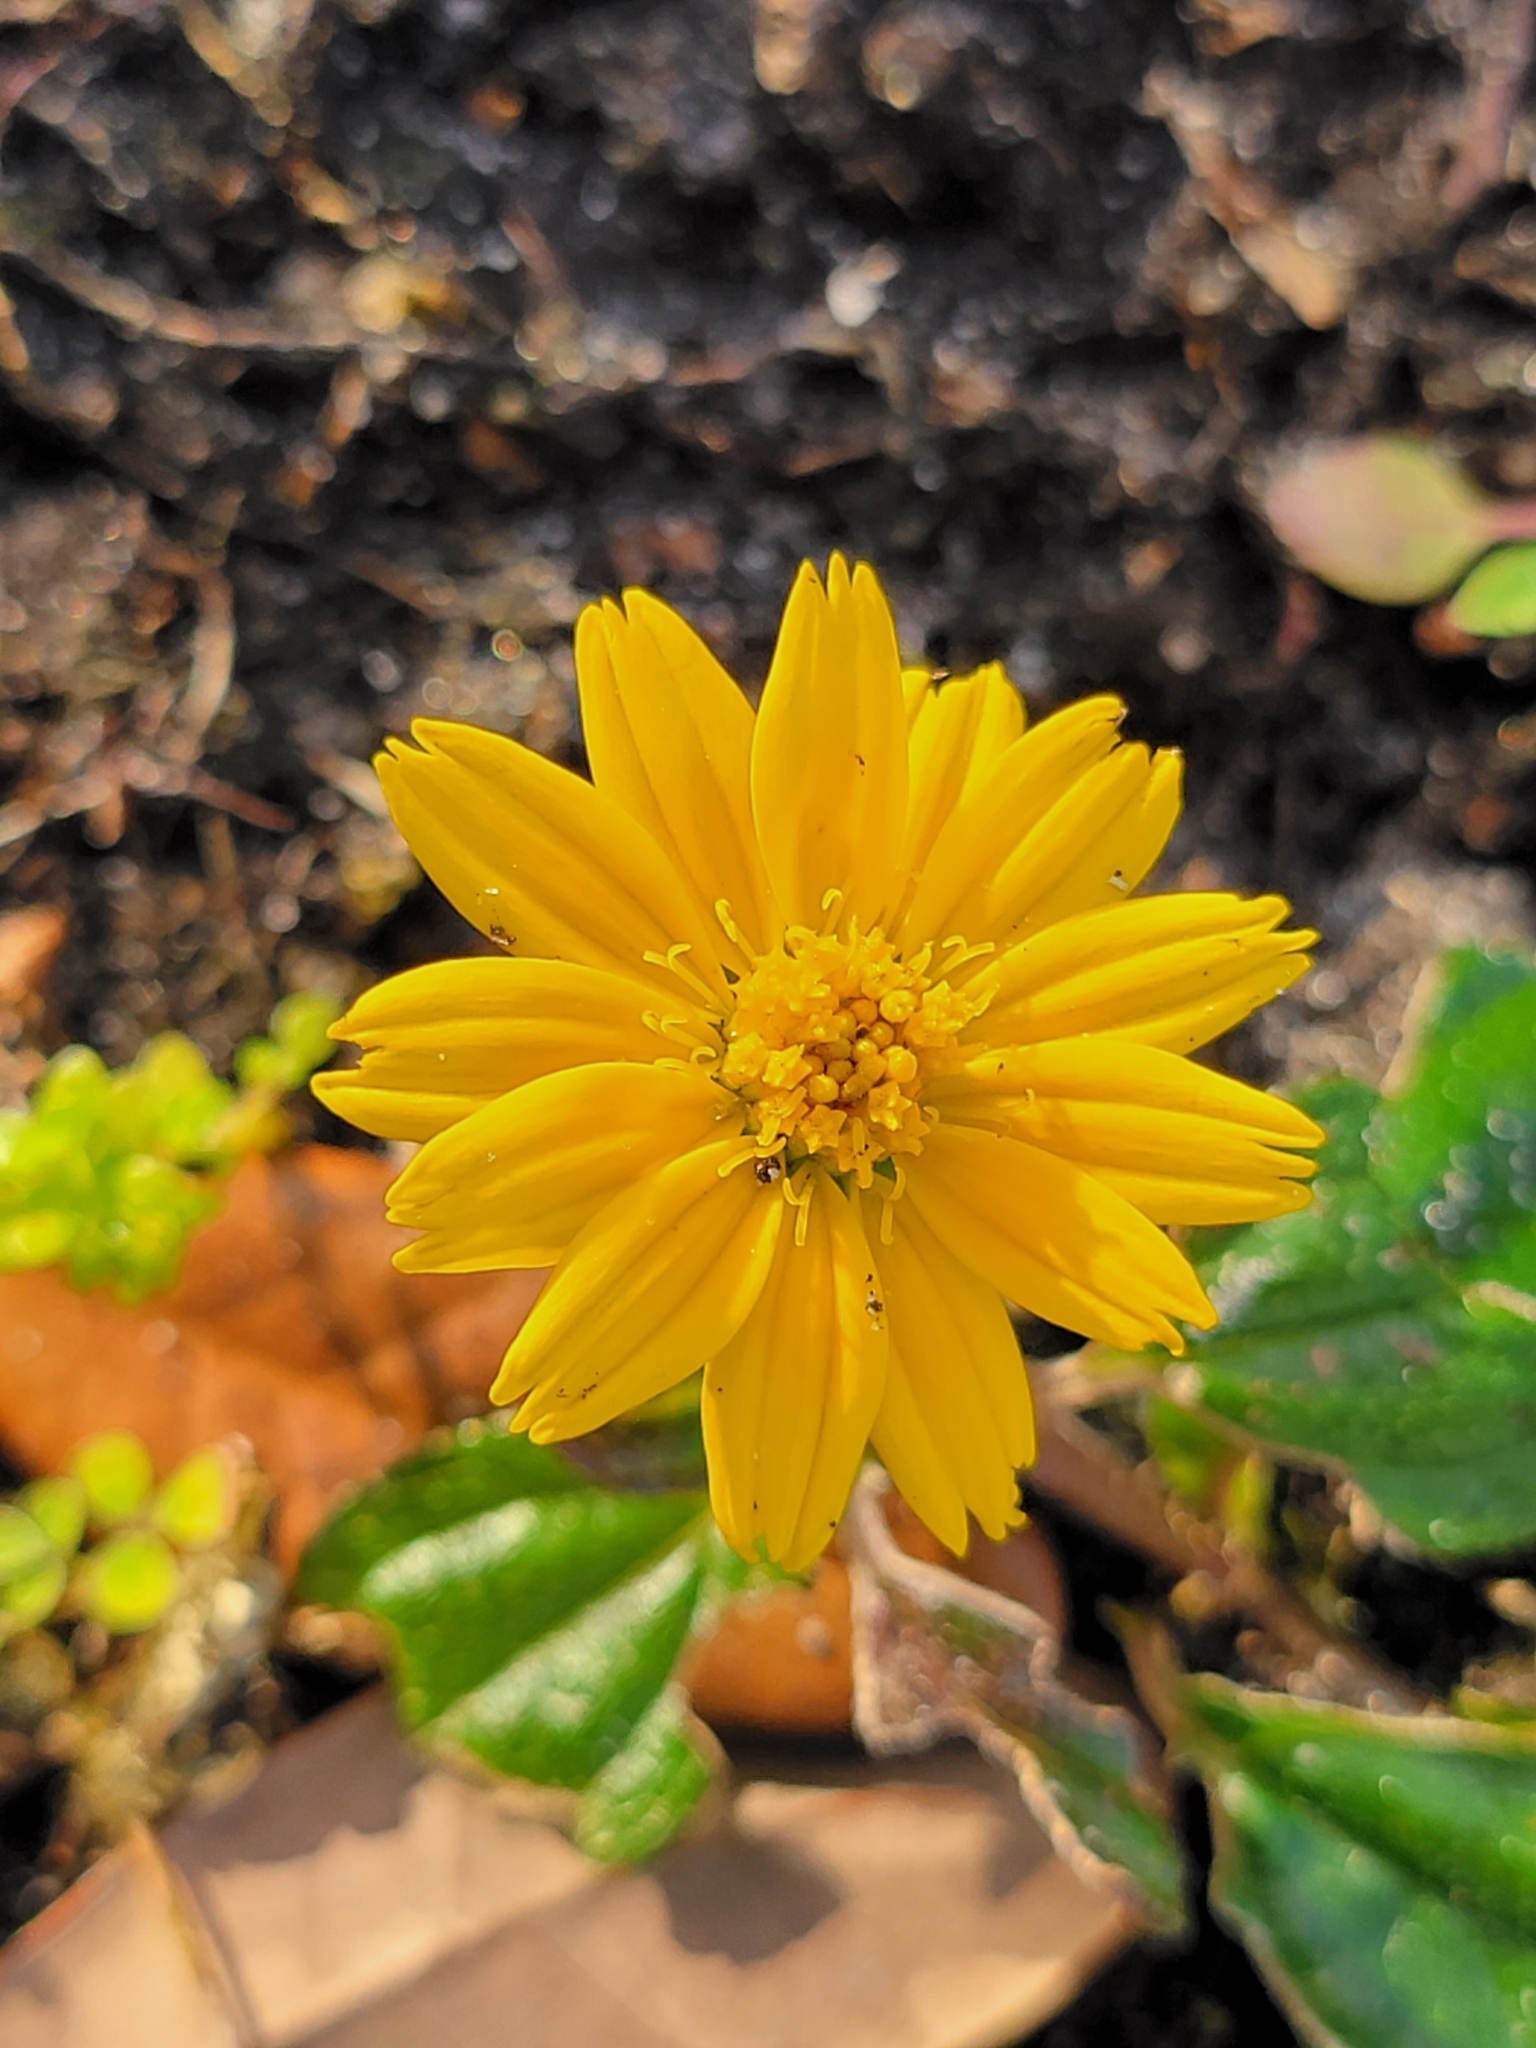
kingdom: Plantae
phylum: Tracheophyta
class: Magnoliopsida
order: Asterales
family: Asteraceae
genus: Sphagneticola
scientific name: Sphagneticola trilobata
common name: Bay biscayne creeping-oxeye
